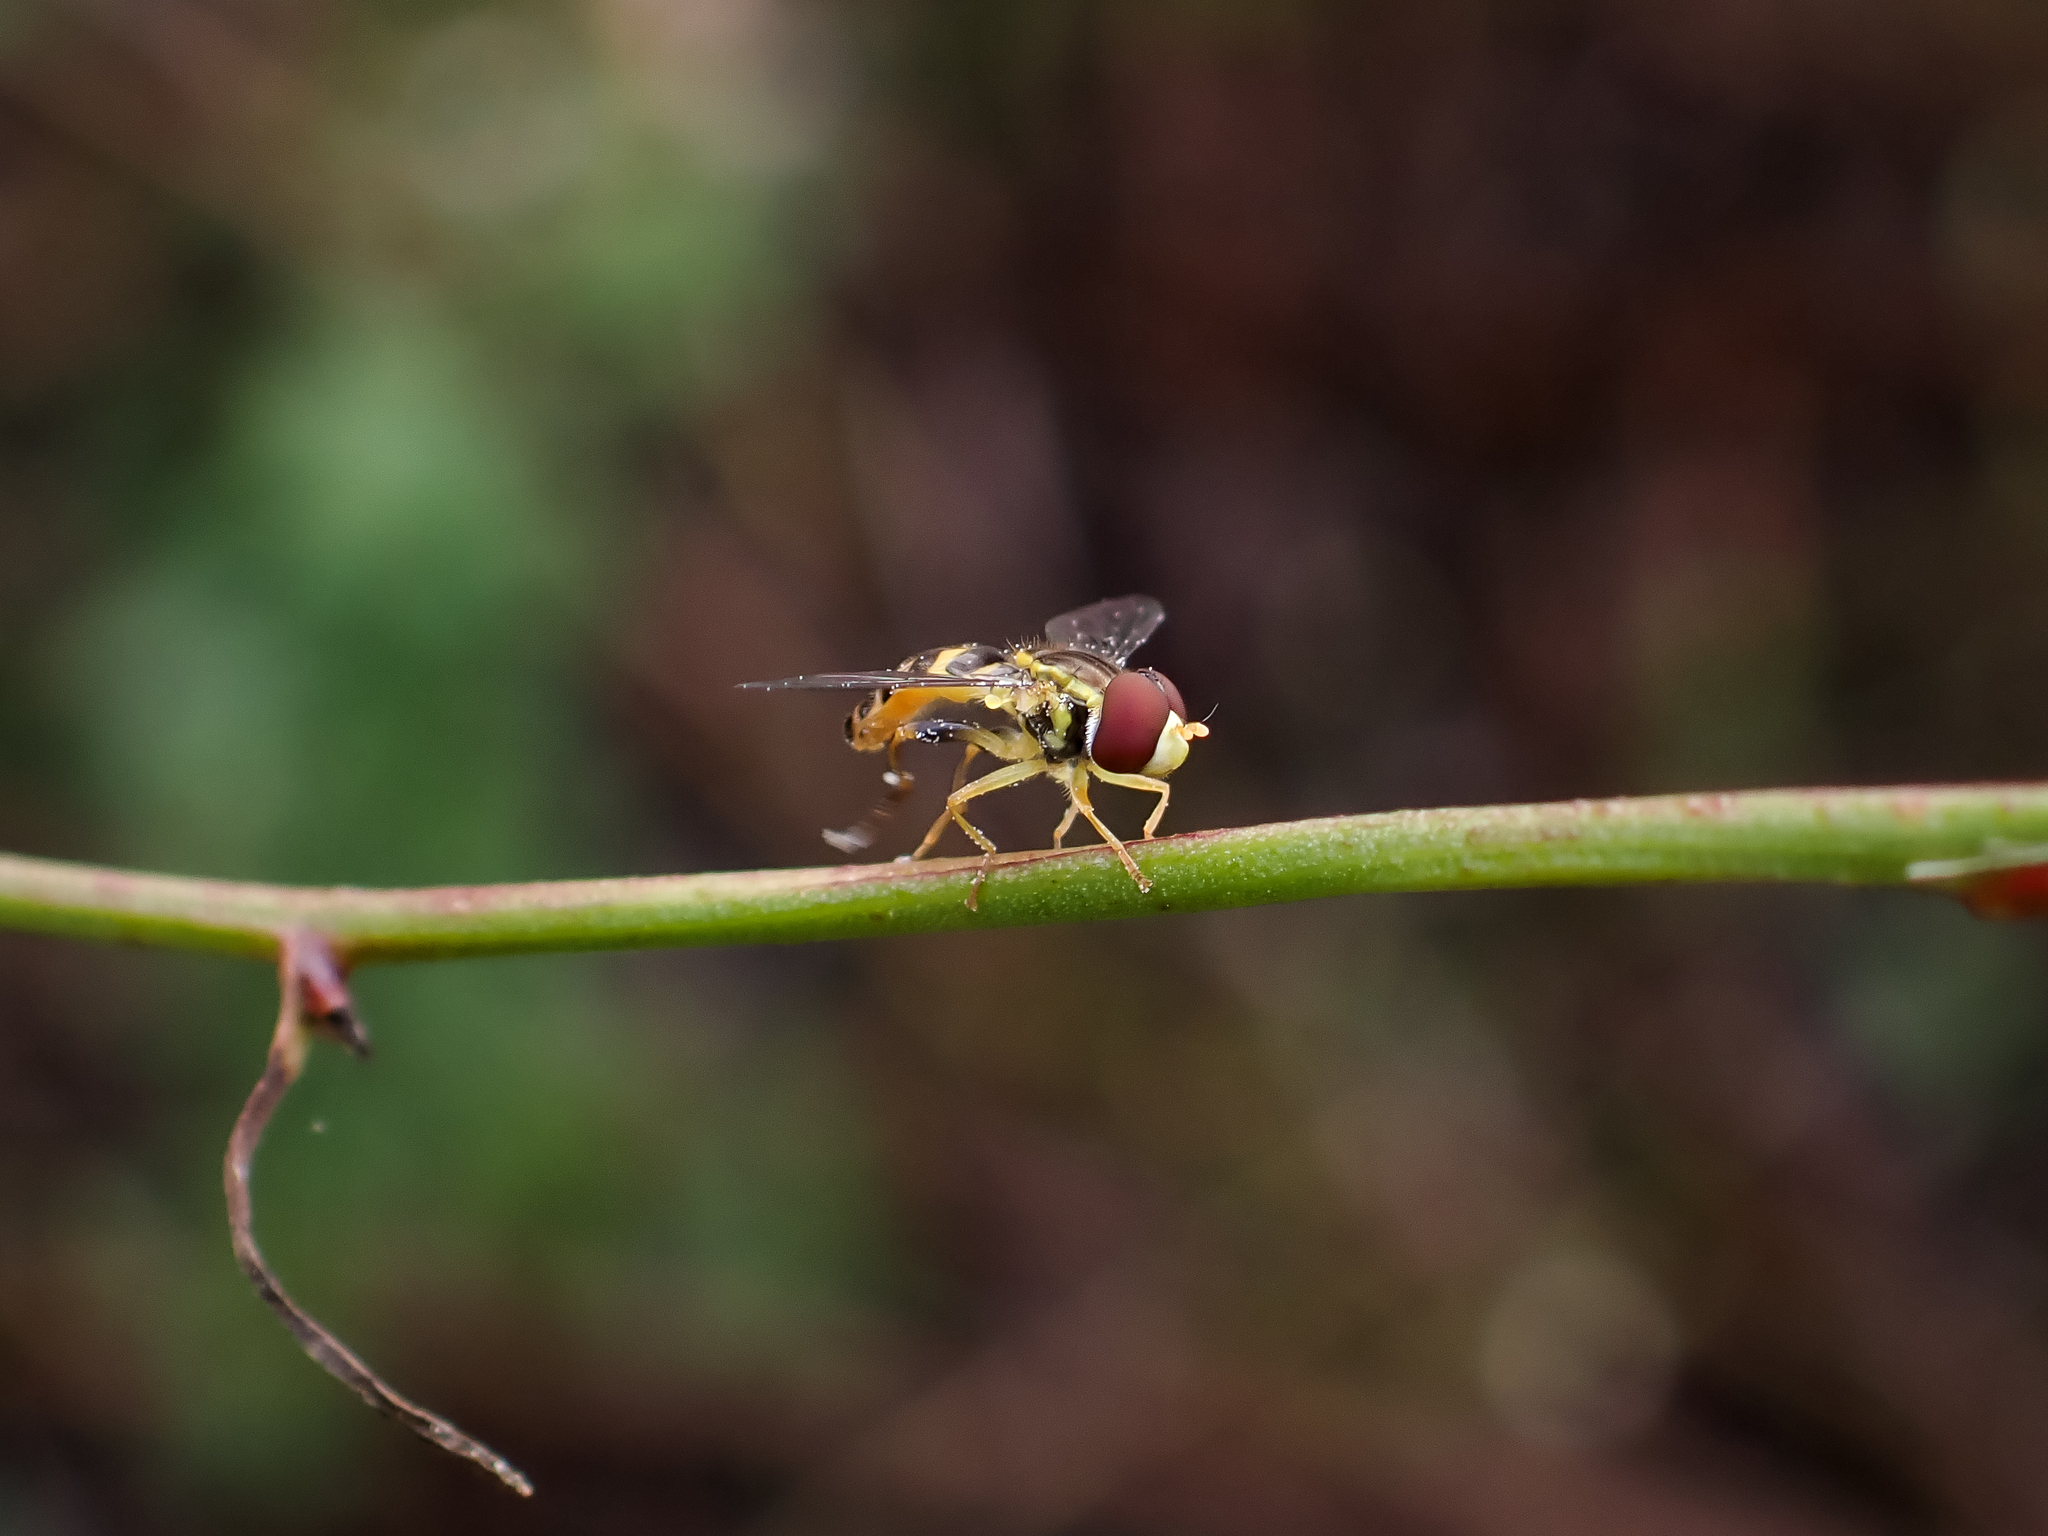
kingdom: Animalia
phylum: Arthropoda
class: Insecta
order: Diptera
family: Syrphidae
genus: Toxomerus
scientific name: Toxomerus occidentalis
